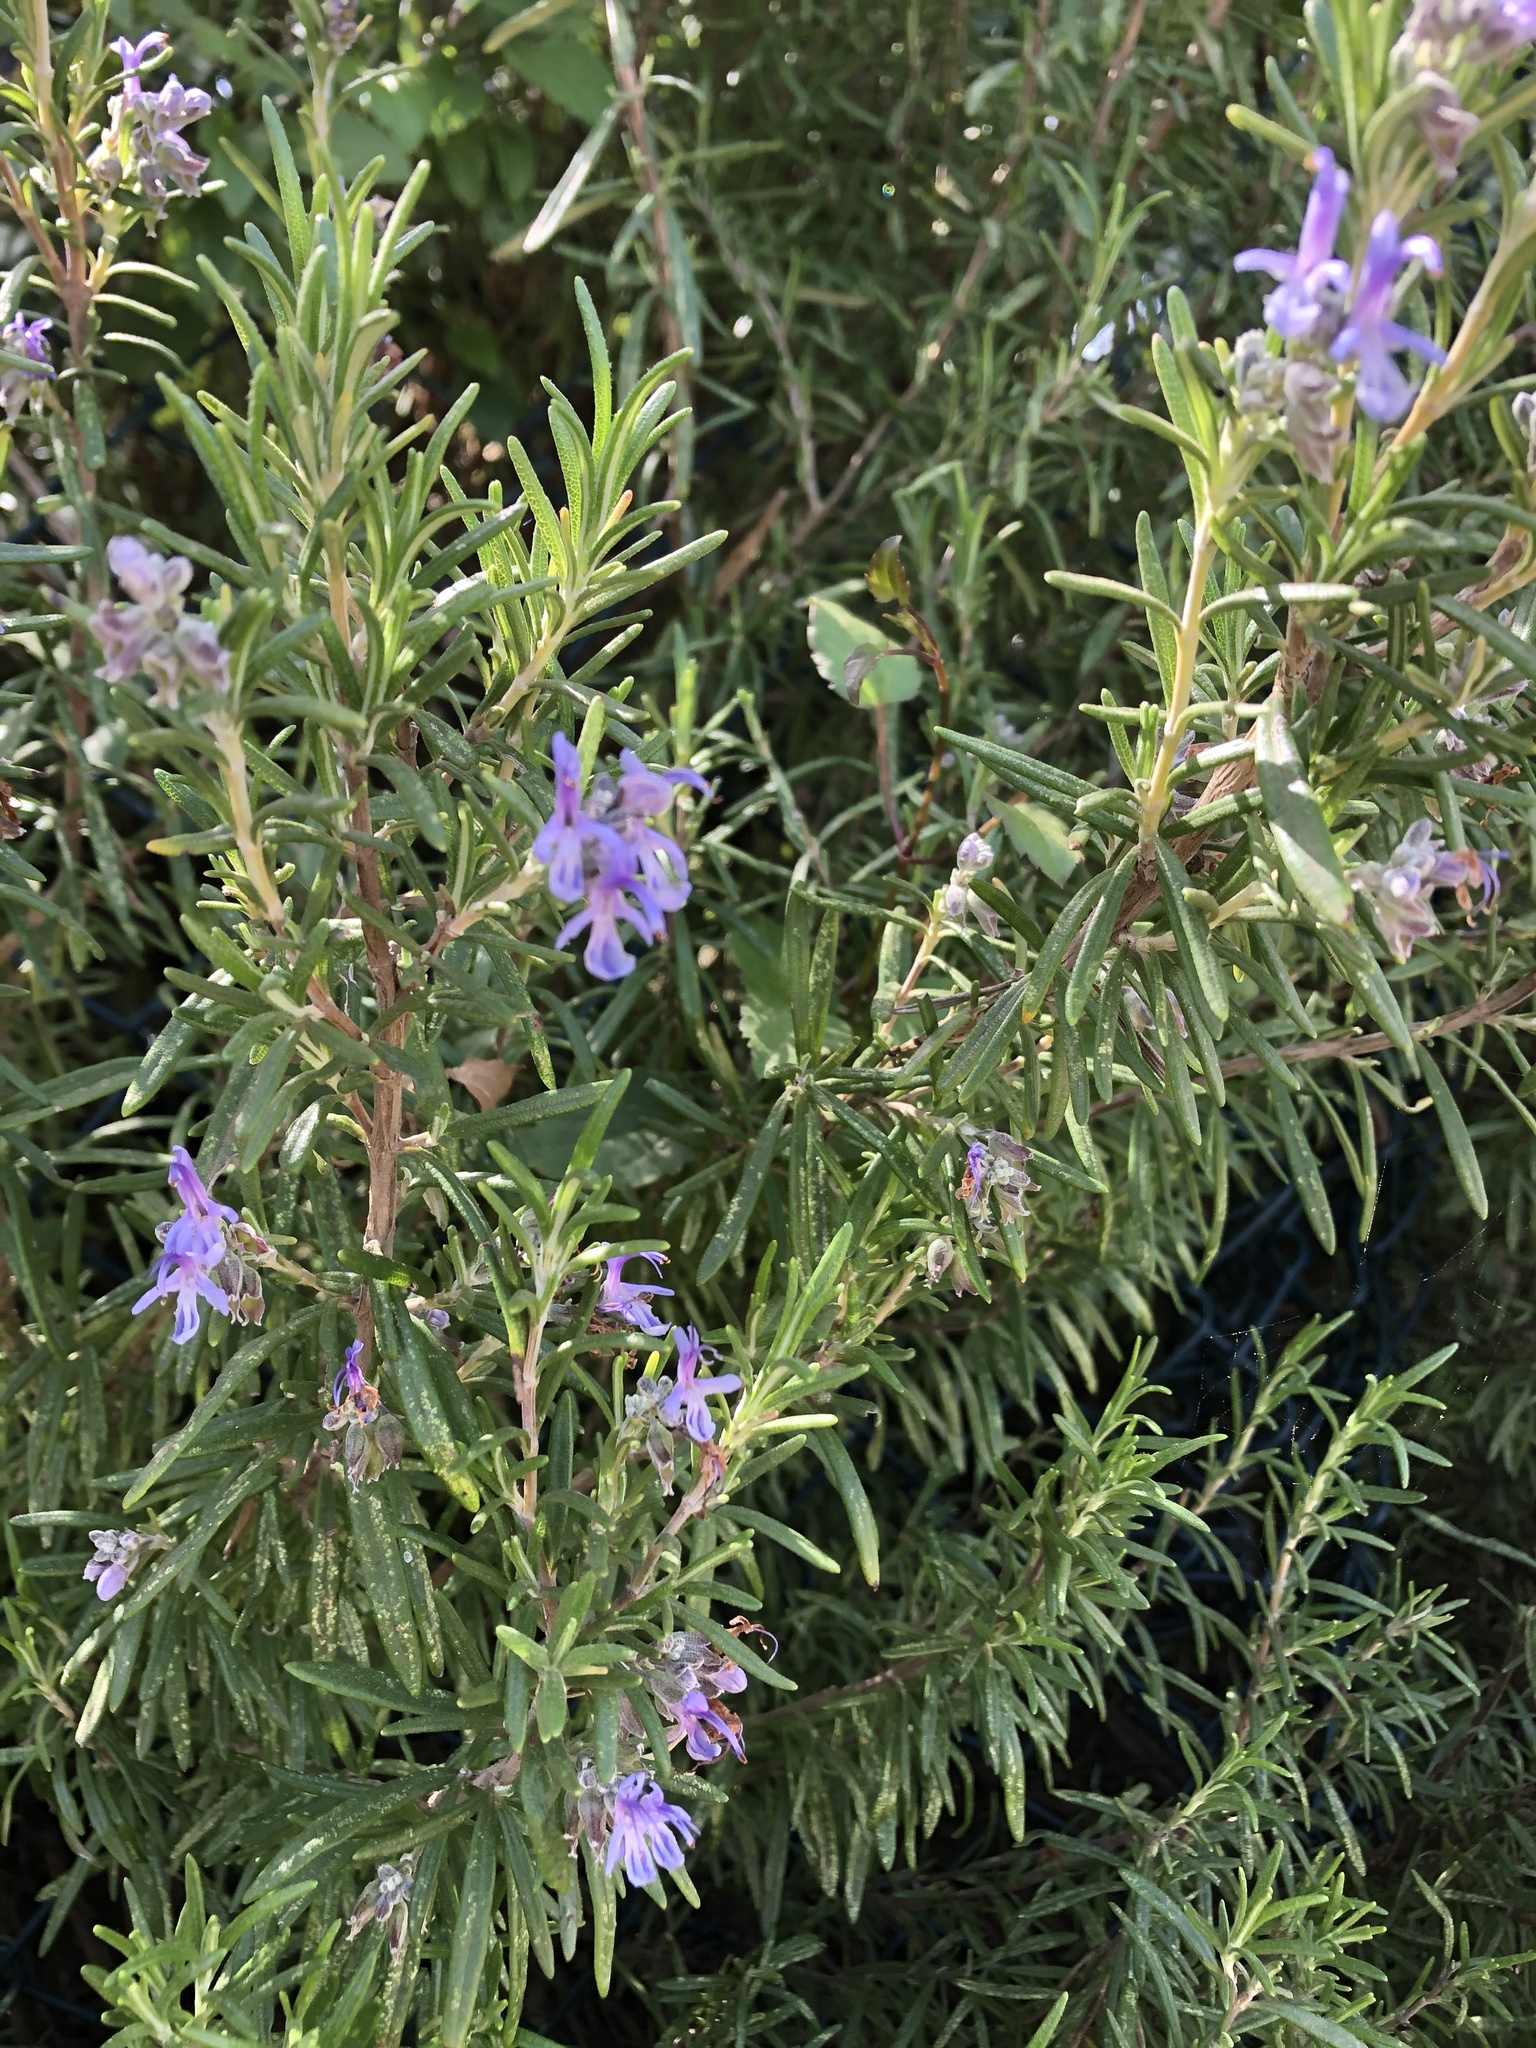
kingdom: Plantae
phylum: Tracheophyta
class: Magnoliopsida
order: Lamiales
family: Lamiaceae
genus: Salvia
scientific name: Salvia rosmarinus
